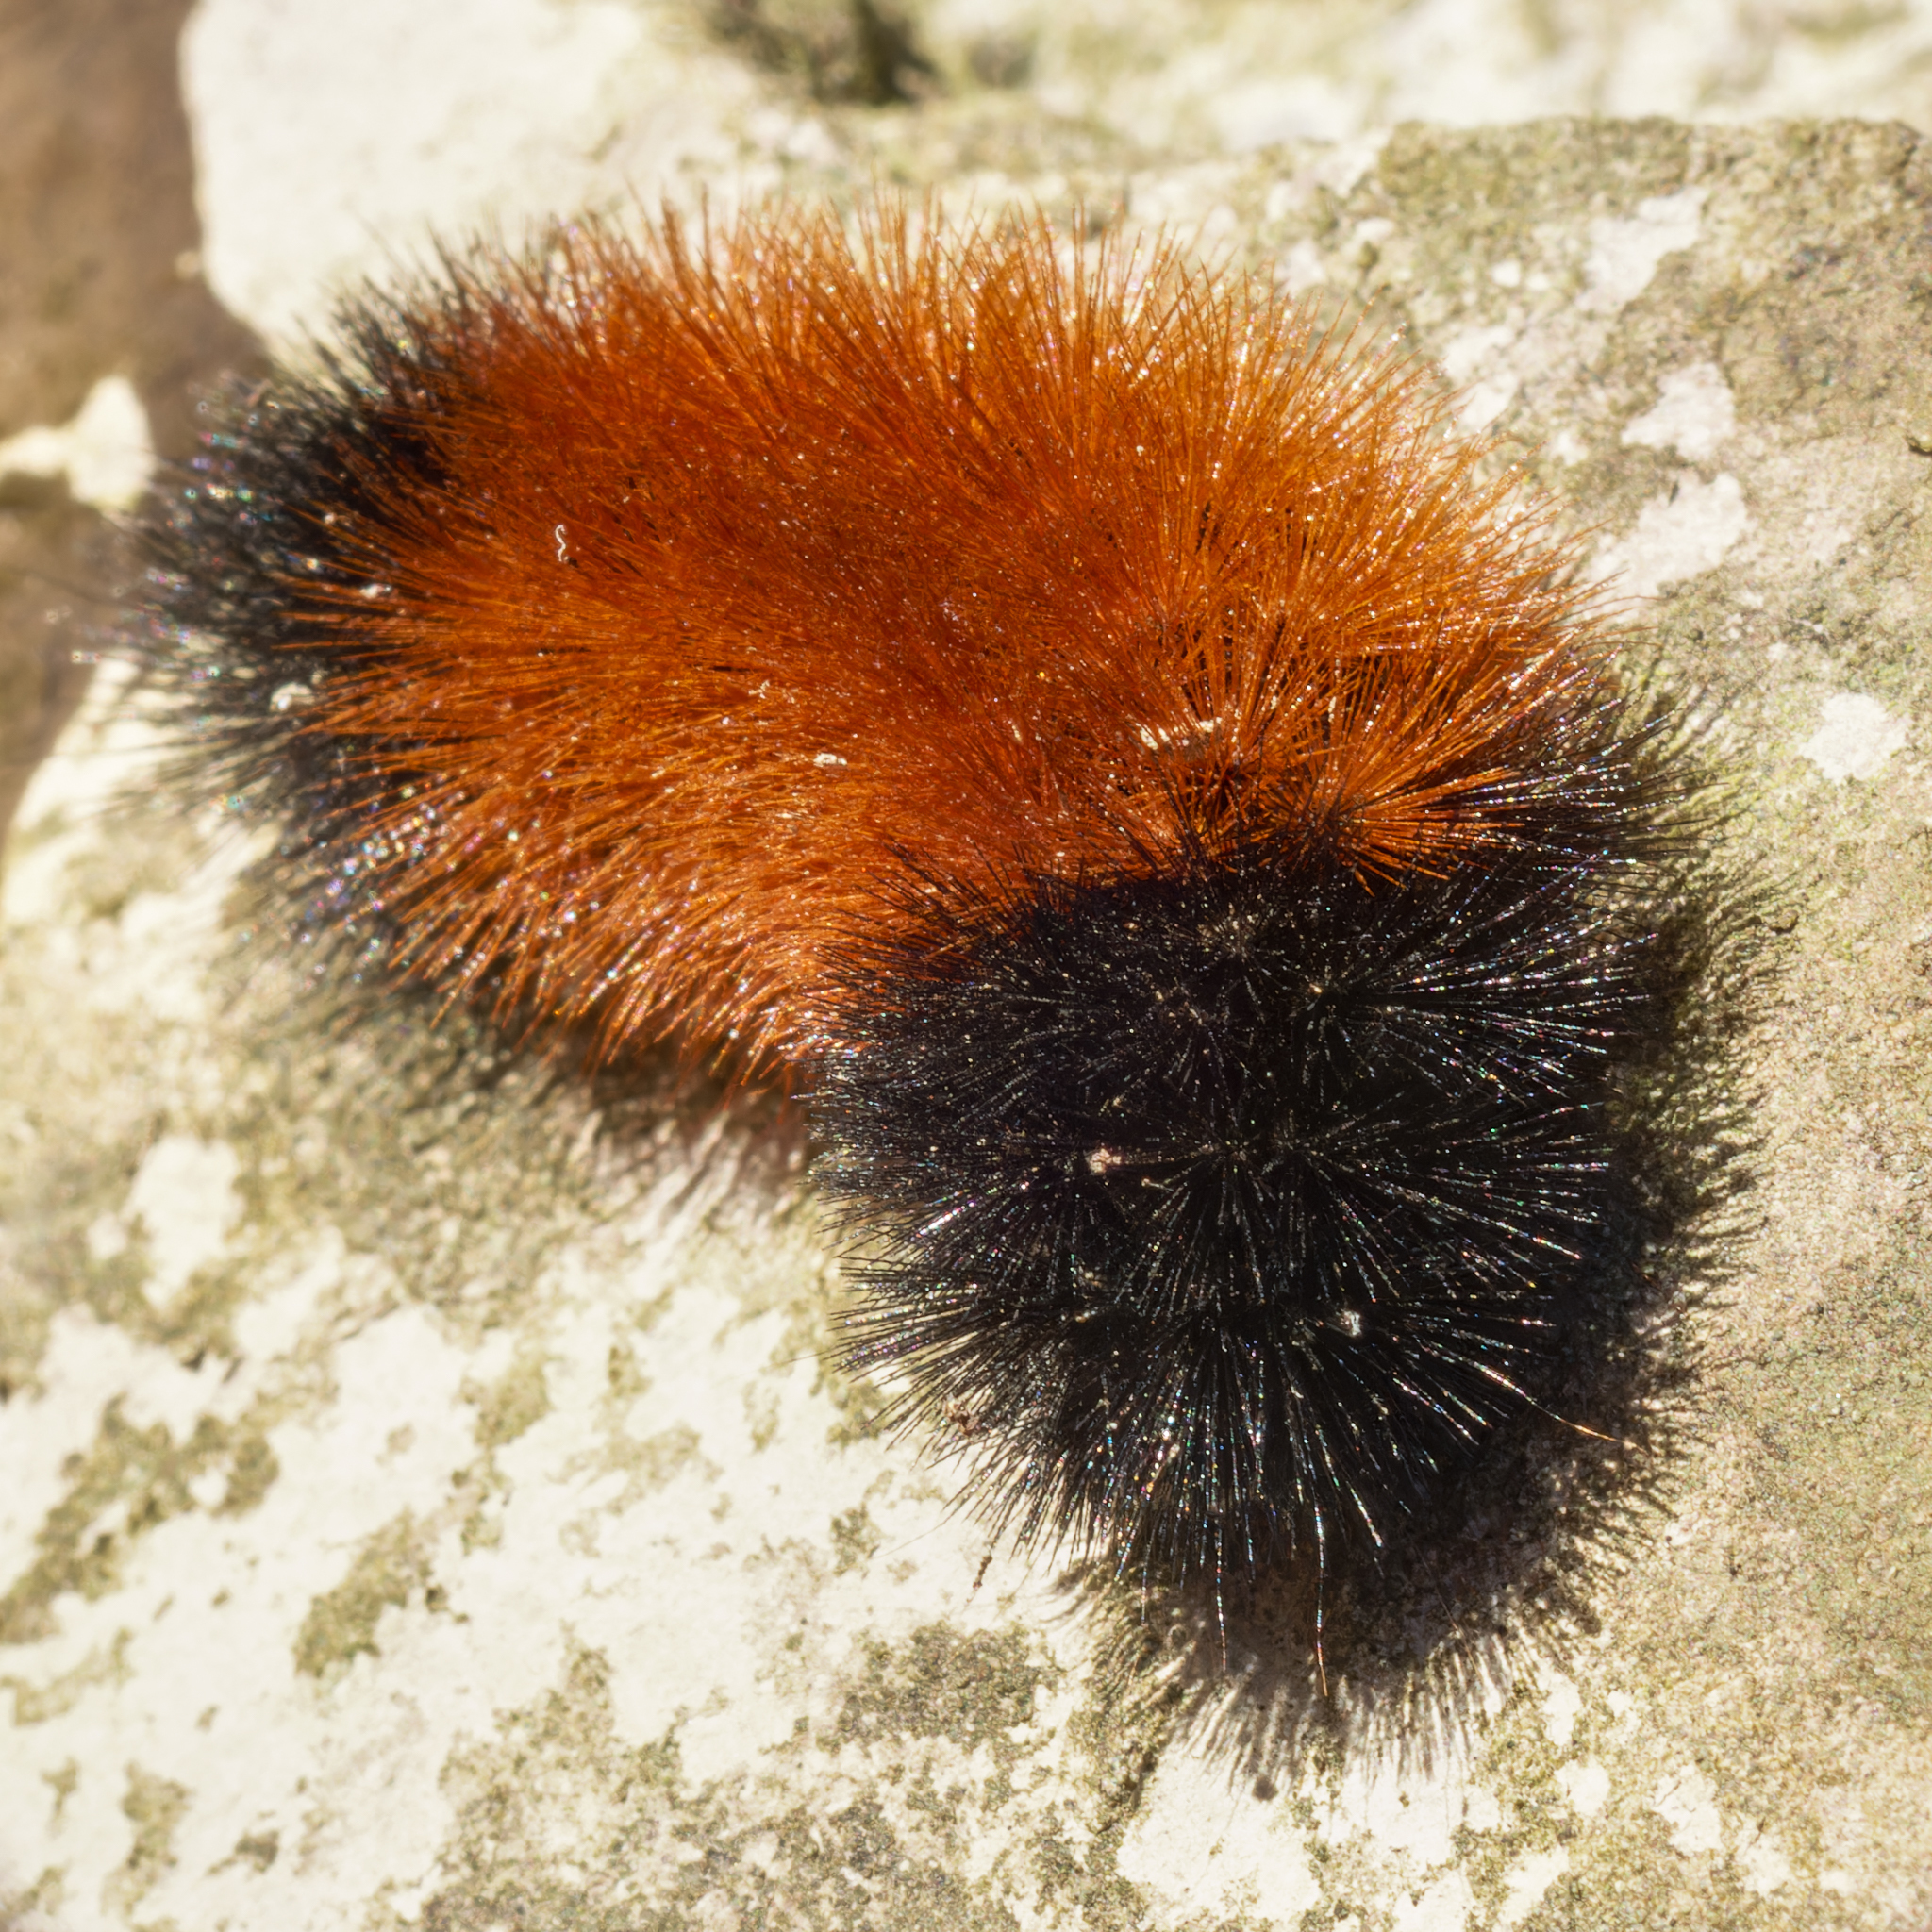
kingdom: Animalia
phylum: Arthropoda
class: Insecta
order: Lepidoptera
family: Erebidae
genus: Pyrrharctia
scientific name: Pyrrharctia isabella
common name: Isabella tiger moth
